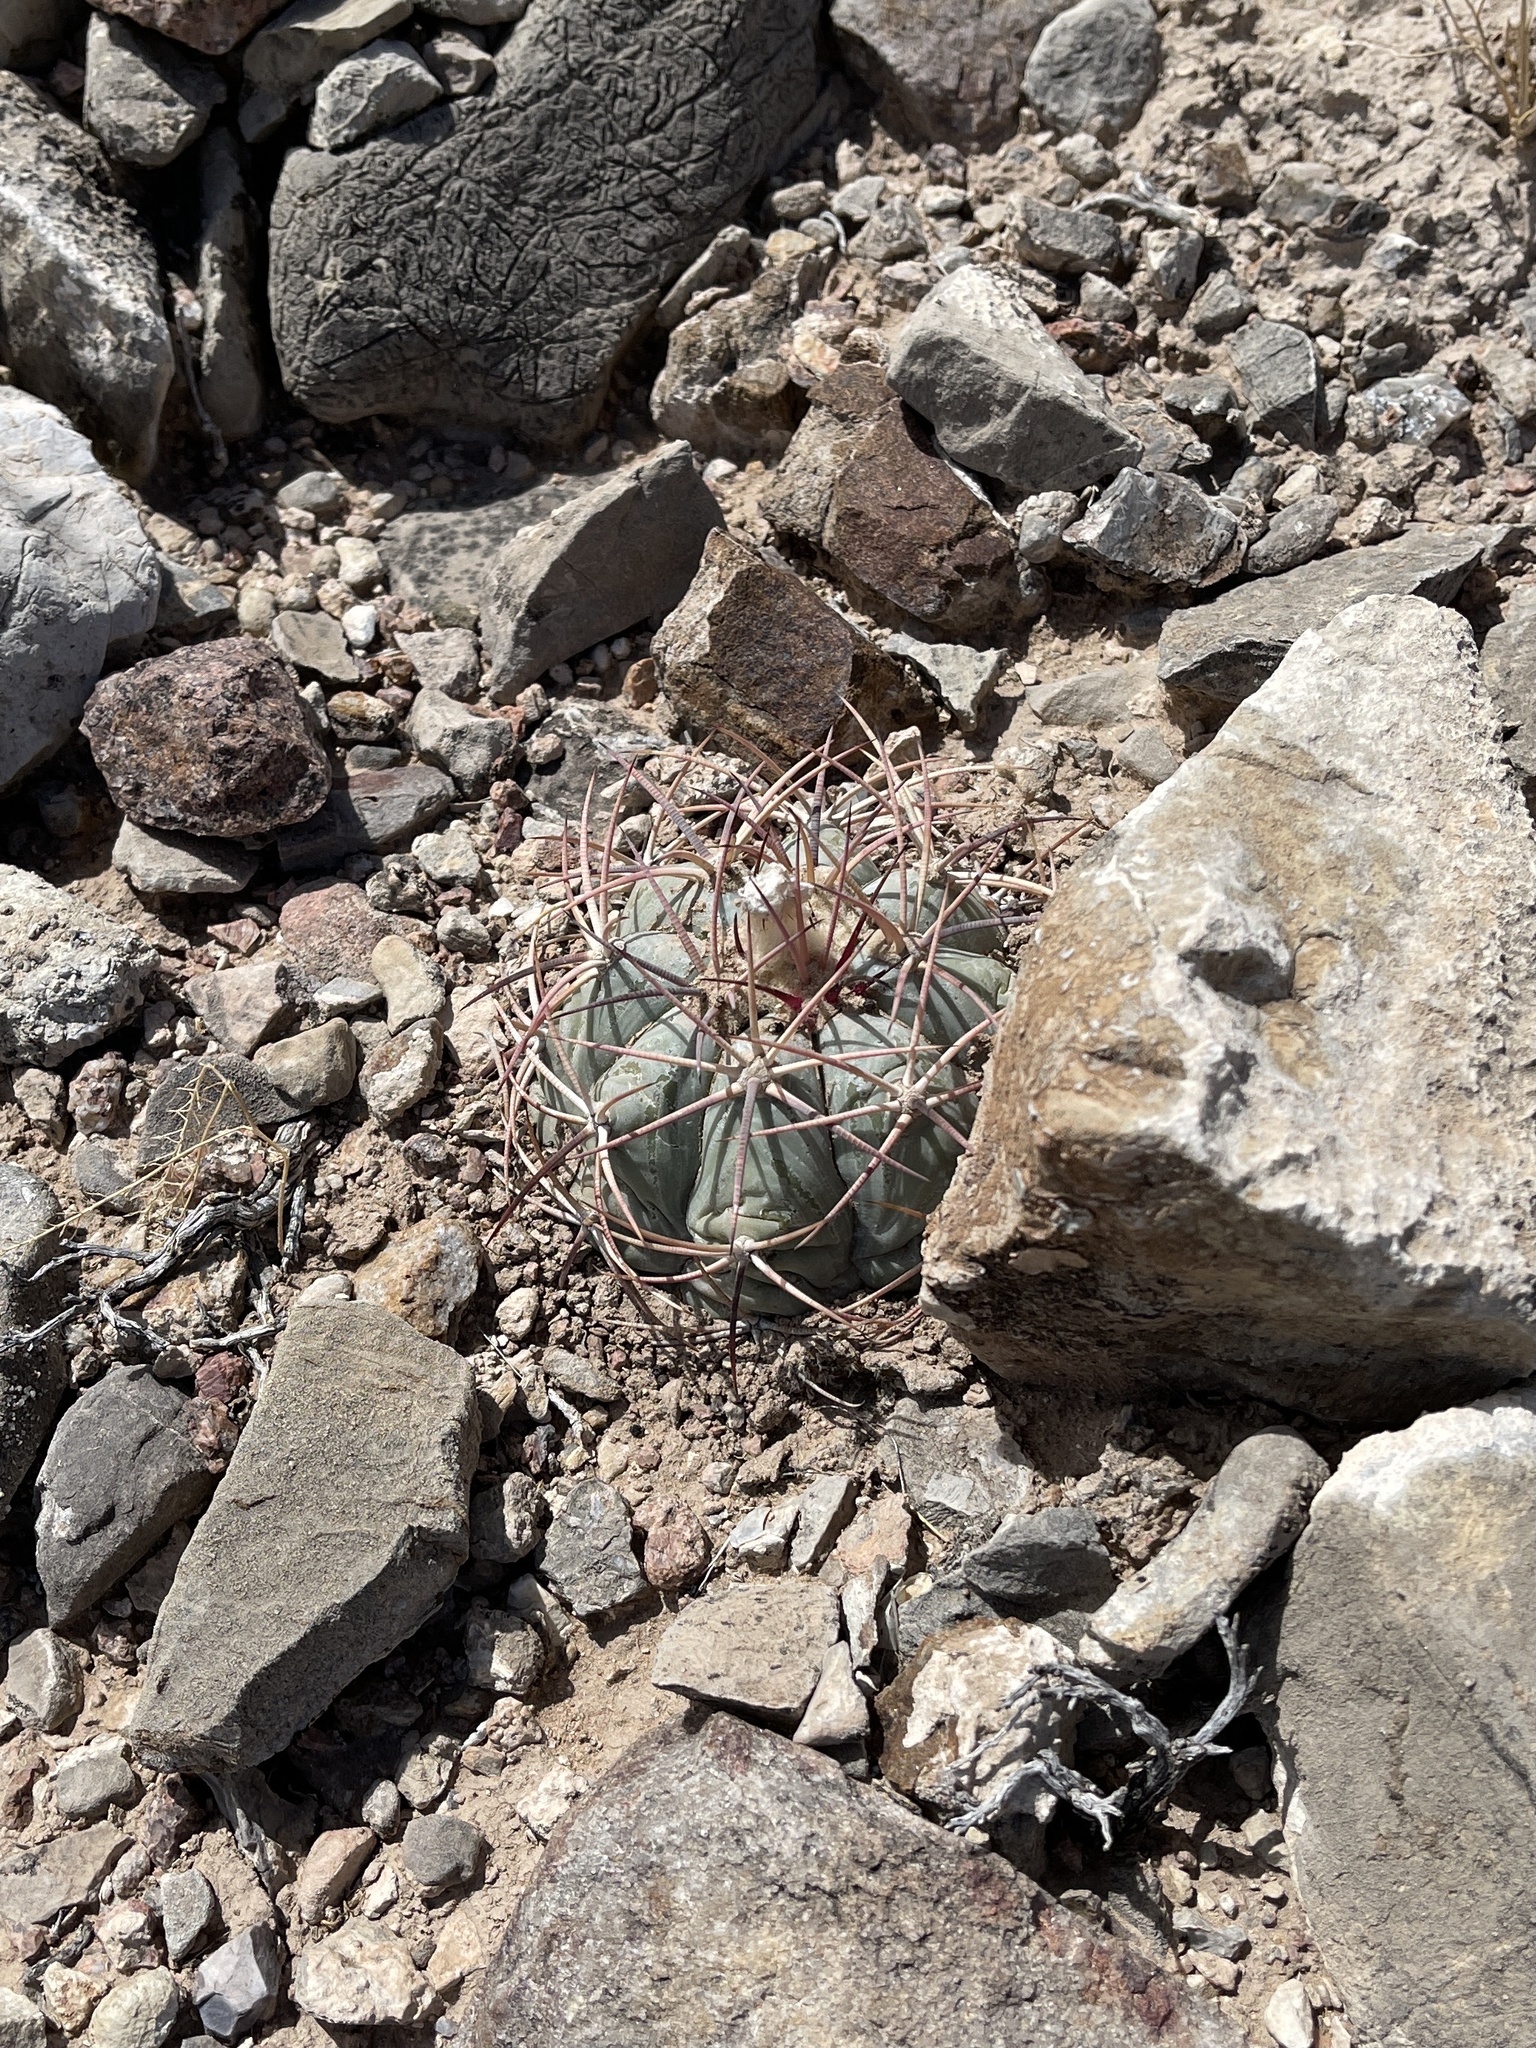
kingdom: Plantae
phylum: Tracheophyta
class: Magnoliopsida
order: Caryophyllales
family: Cactaceae
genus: Echinocactus
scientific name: Echinocactus horizonthalonius
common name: Devilshead
